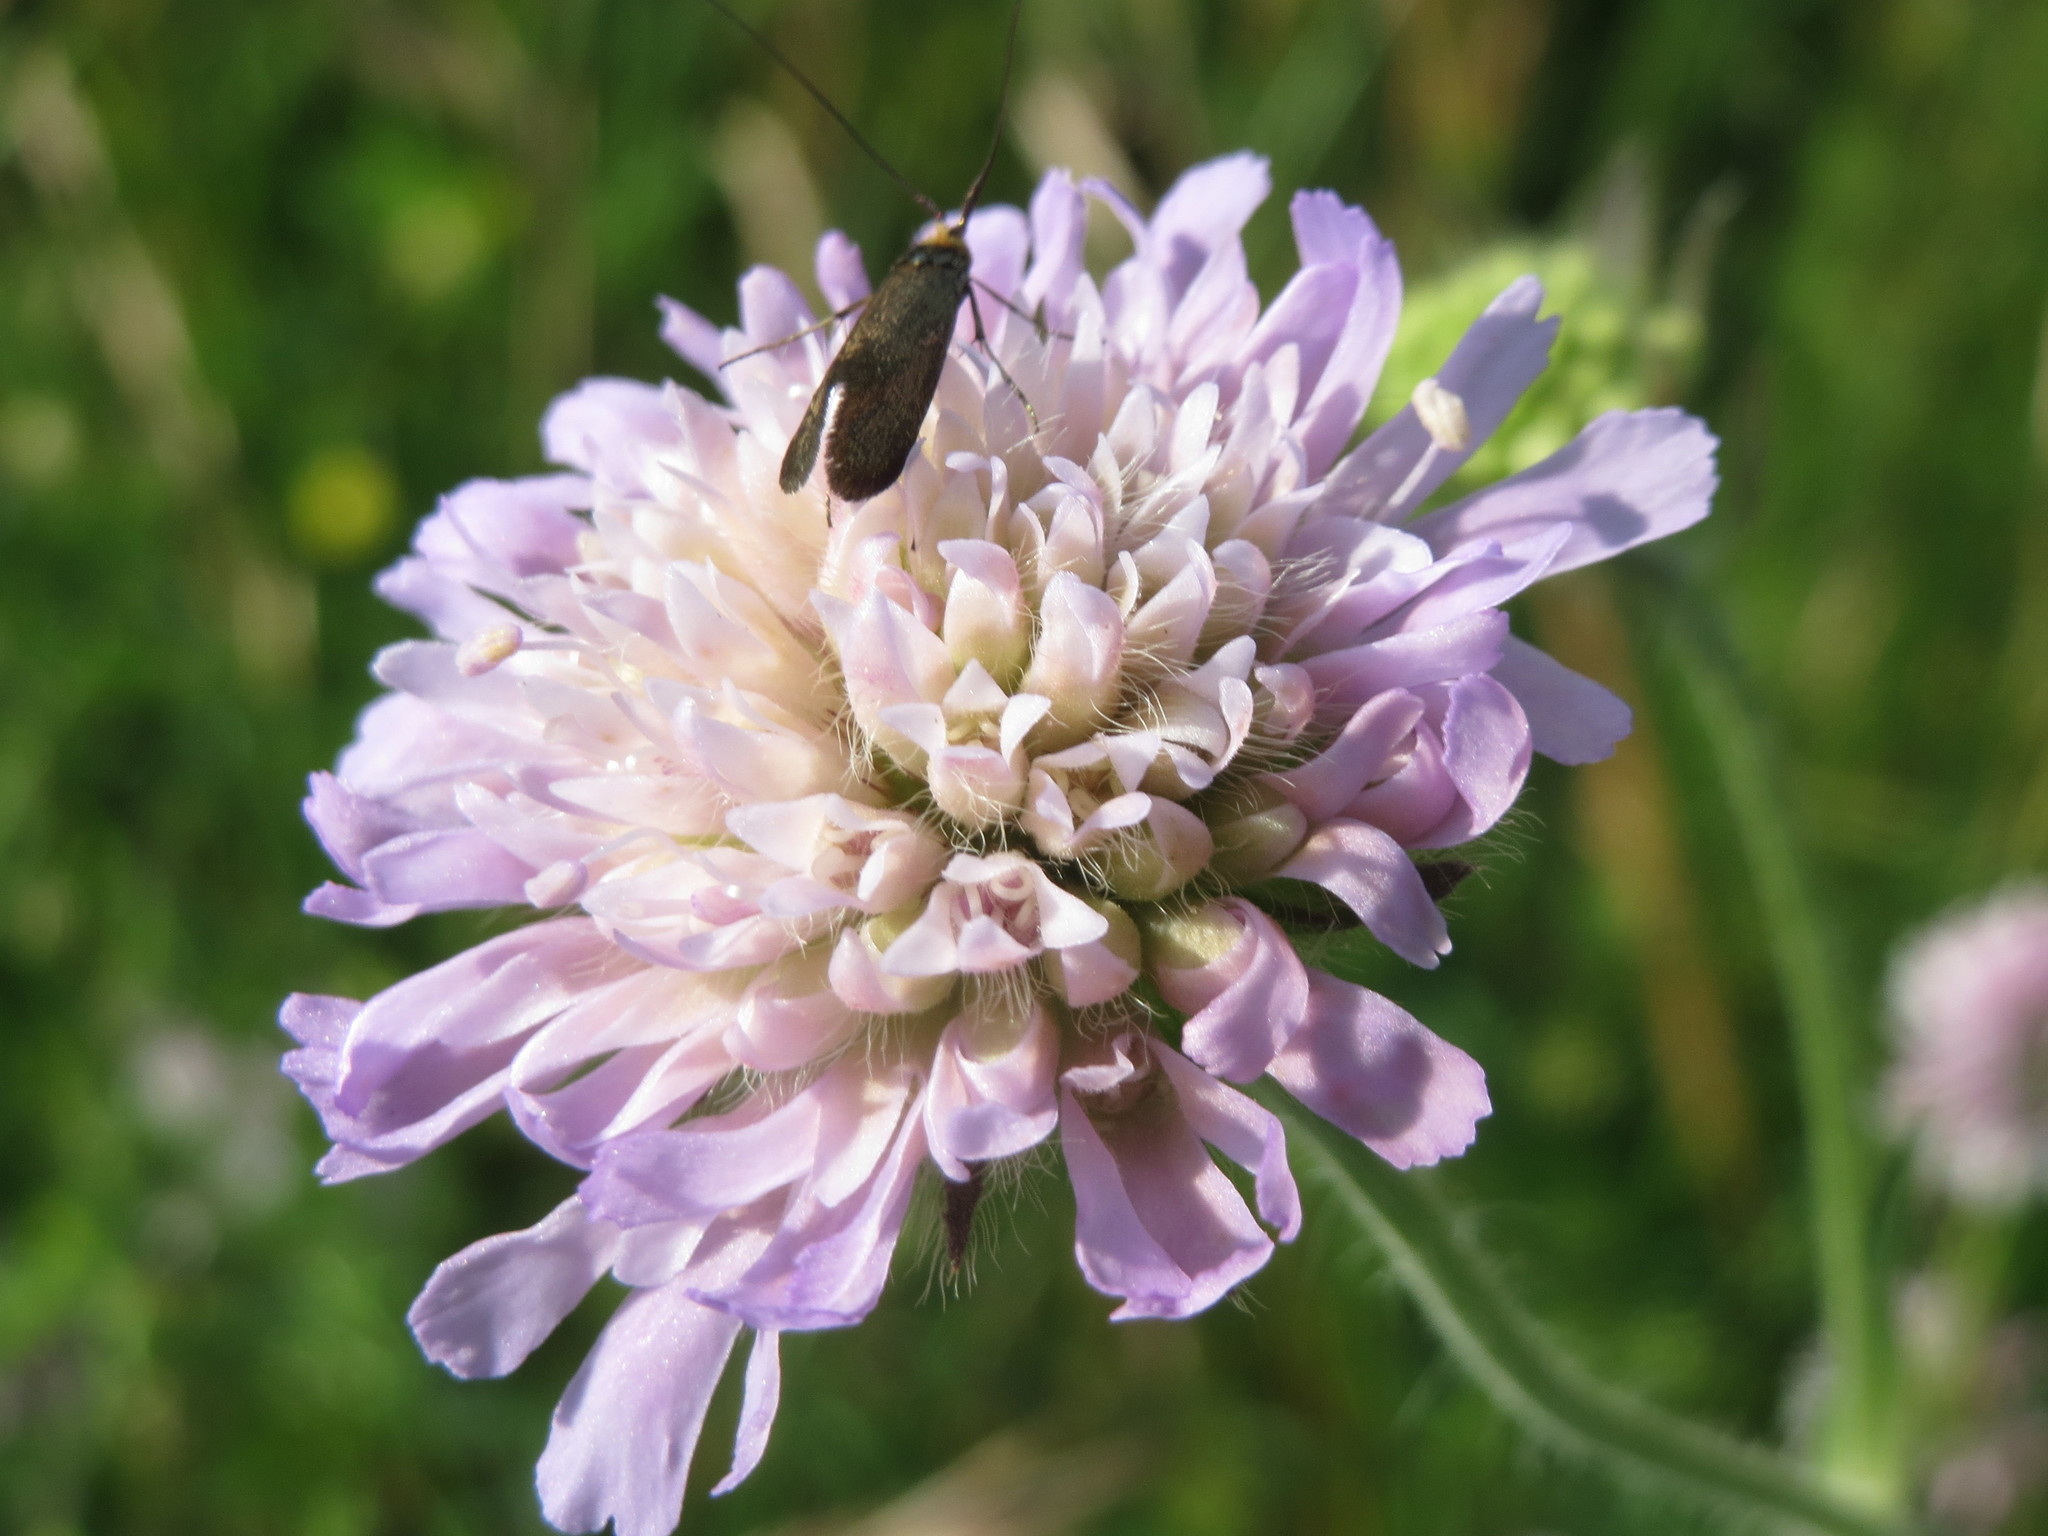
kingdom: Plantae
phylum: Tracheophyta
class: Magnoliopsida
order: Dipsacales
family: Caprifoliaceae
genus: Knautia
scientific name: Knautia arvensis
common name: Field scabiosa
